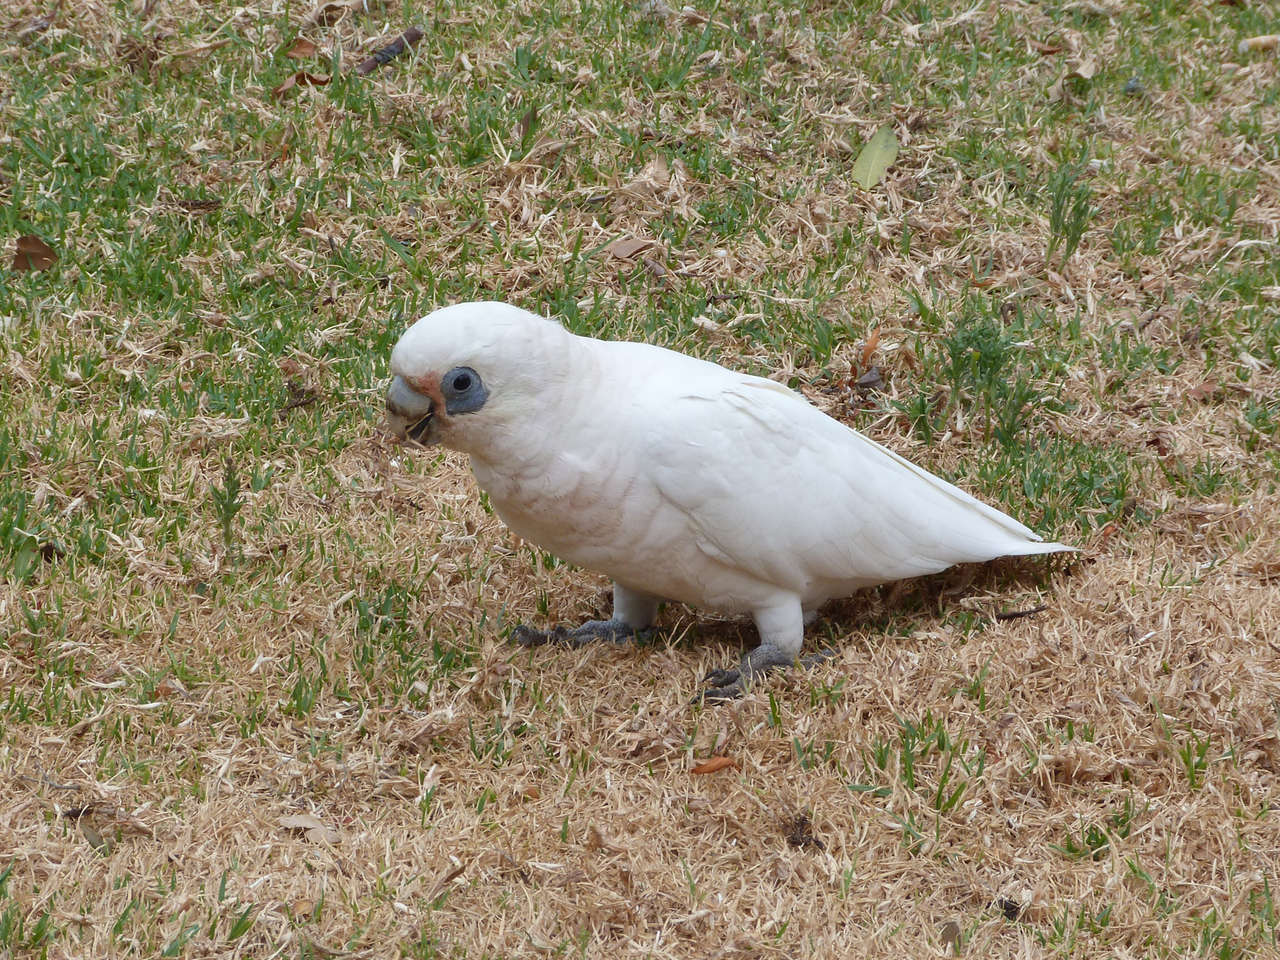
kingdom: Animalia
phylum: Chordata
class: Aves
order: Psittaciformes
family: Psittacidae
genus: Cacatua
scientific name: Cacatua sanguinea
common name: Little corella
